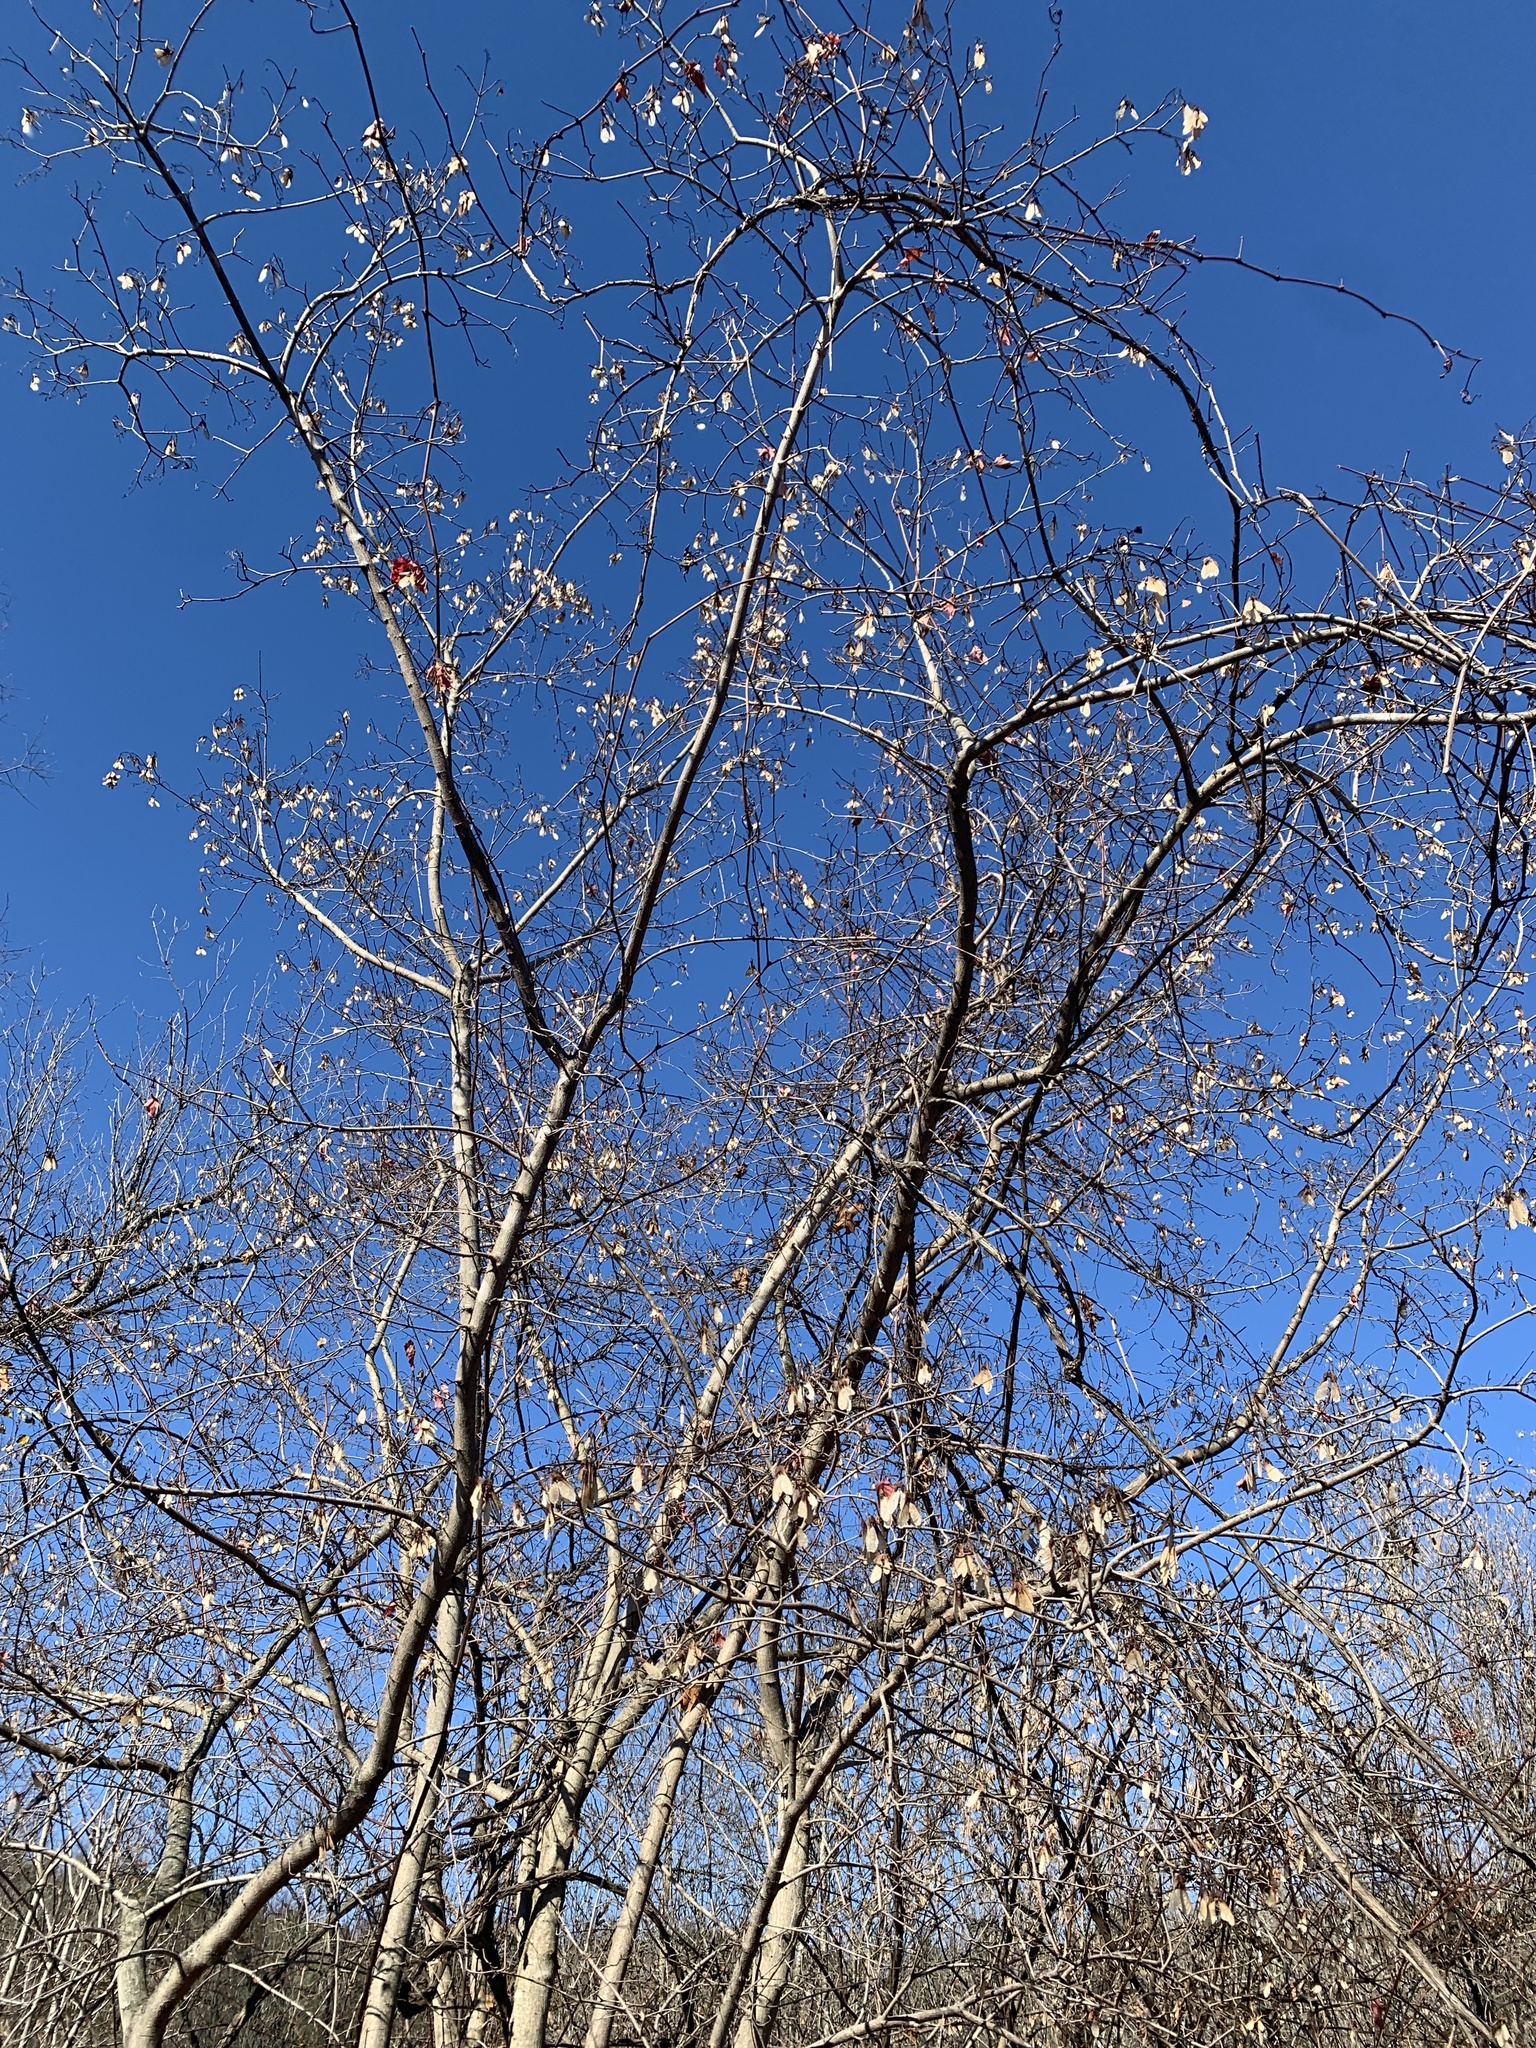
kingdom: Plantae
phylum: Tracheophyta
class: Magnoliopsida
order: Sapindales
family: Sapindaceae
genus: Acer
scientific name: Acer tataricum
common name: Tartar maple
